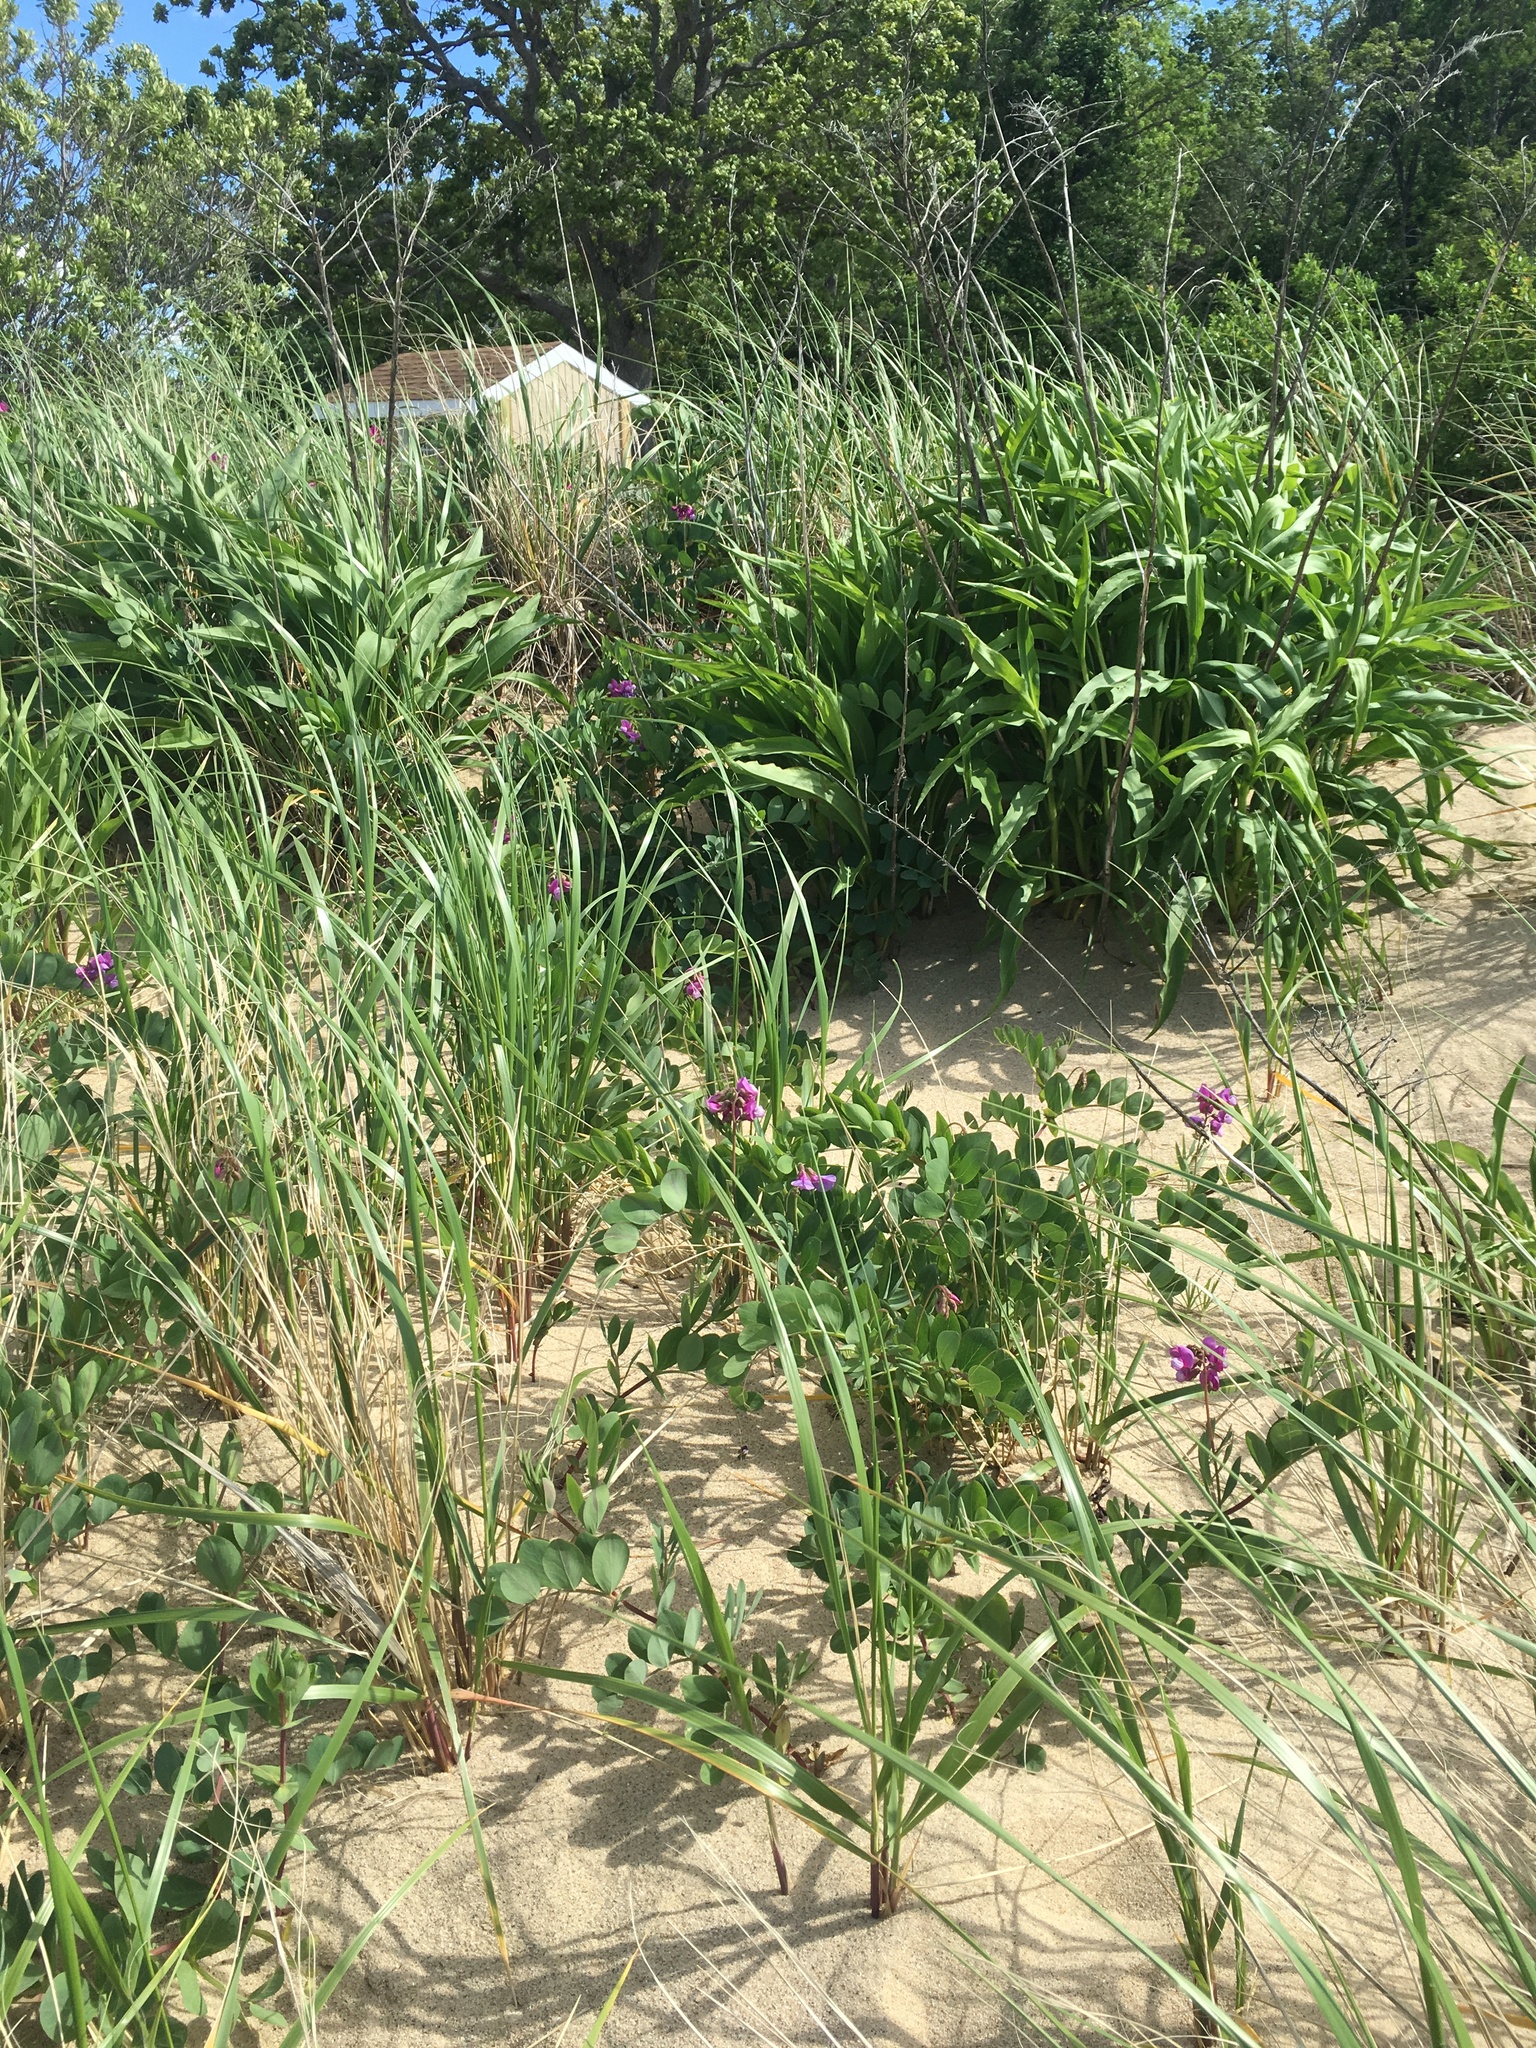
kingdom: Plantae
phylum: Tracheophyta
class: Magnoliopsida
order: Fabales
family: Fabaceae
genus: Lathyrus
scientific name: Lathyrus japonicus
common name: Sea pea
